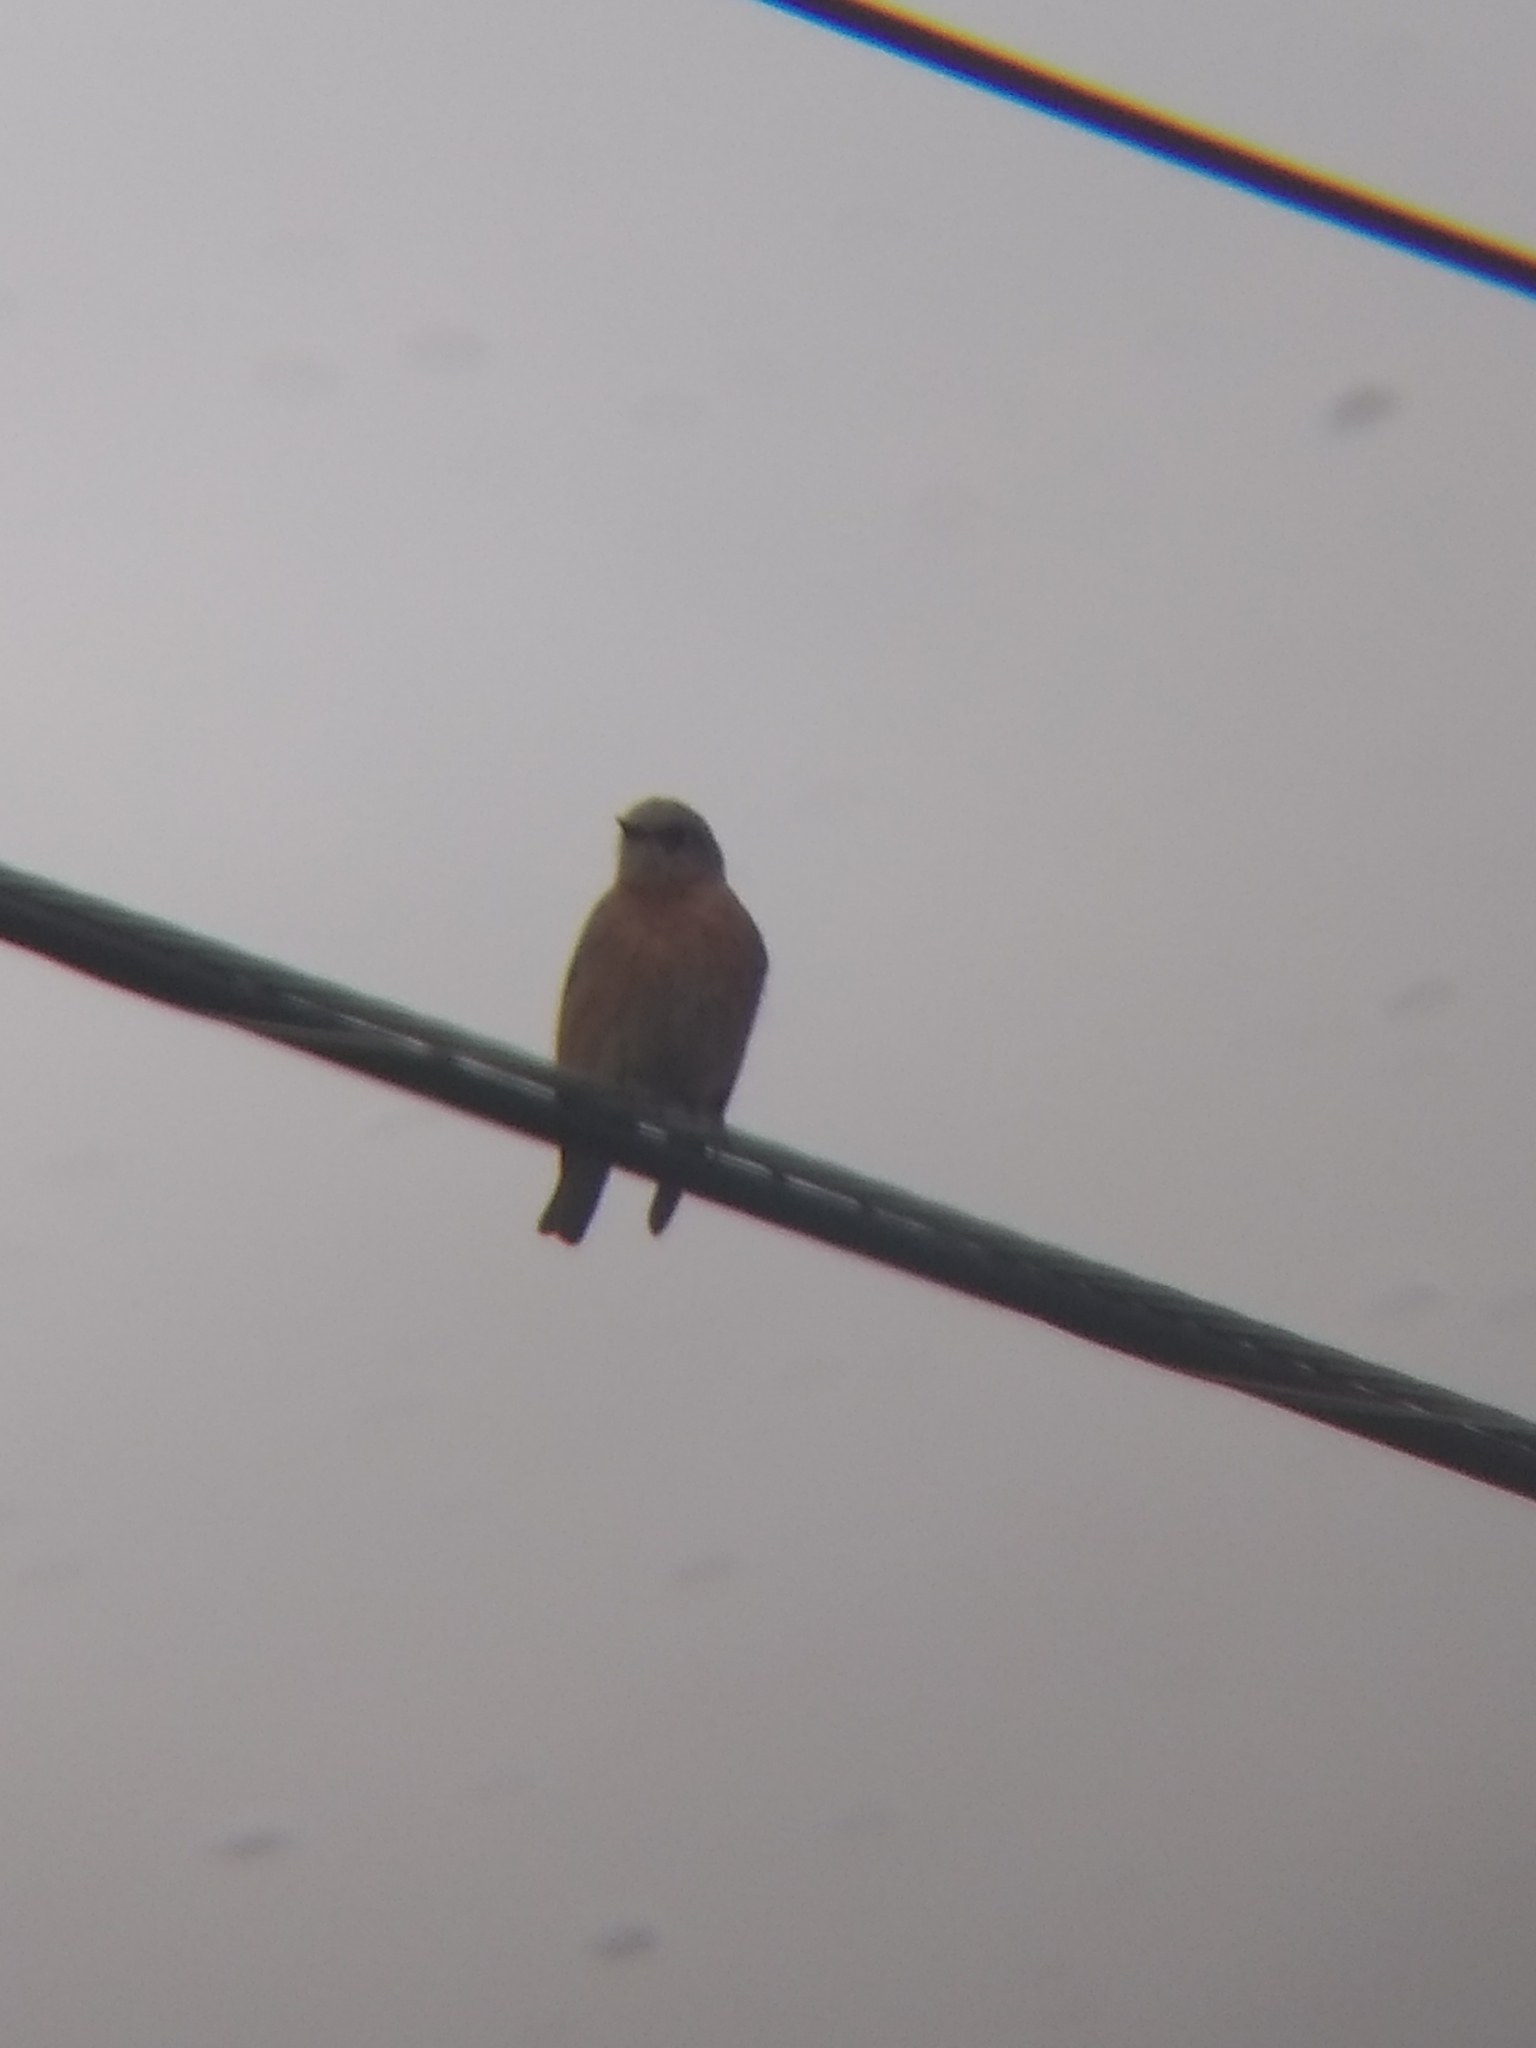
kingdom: Animalia
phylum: Chordata
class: Aves
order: Passeriformes
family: Turdidae
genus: Sialia
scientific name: Sialia mexicana
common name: Western bluebird
